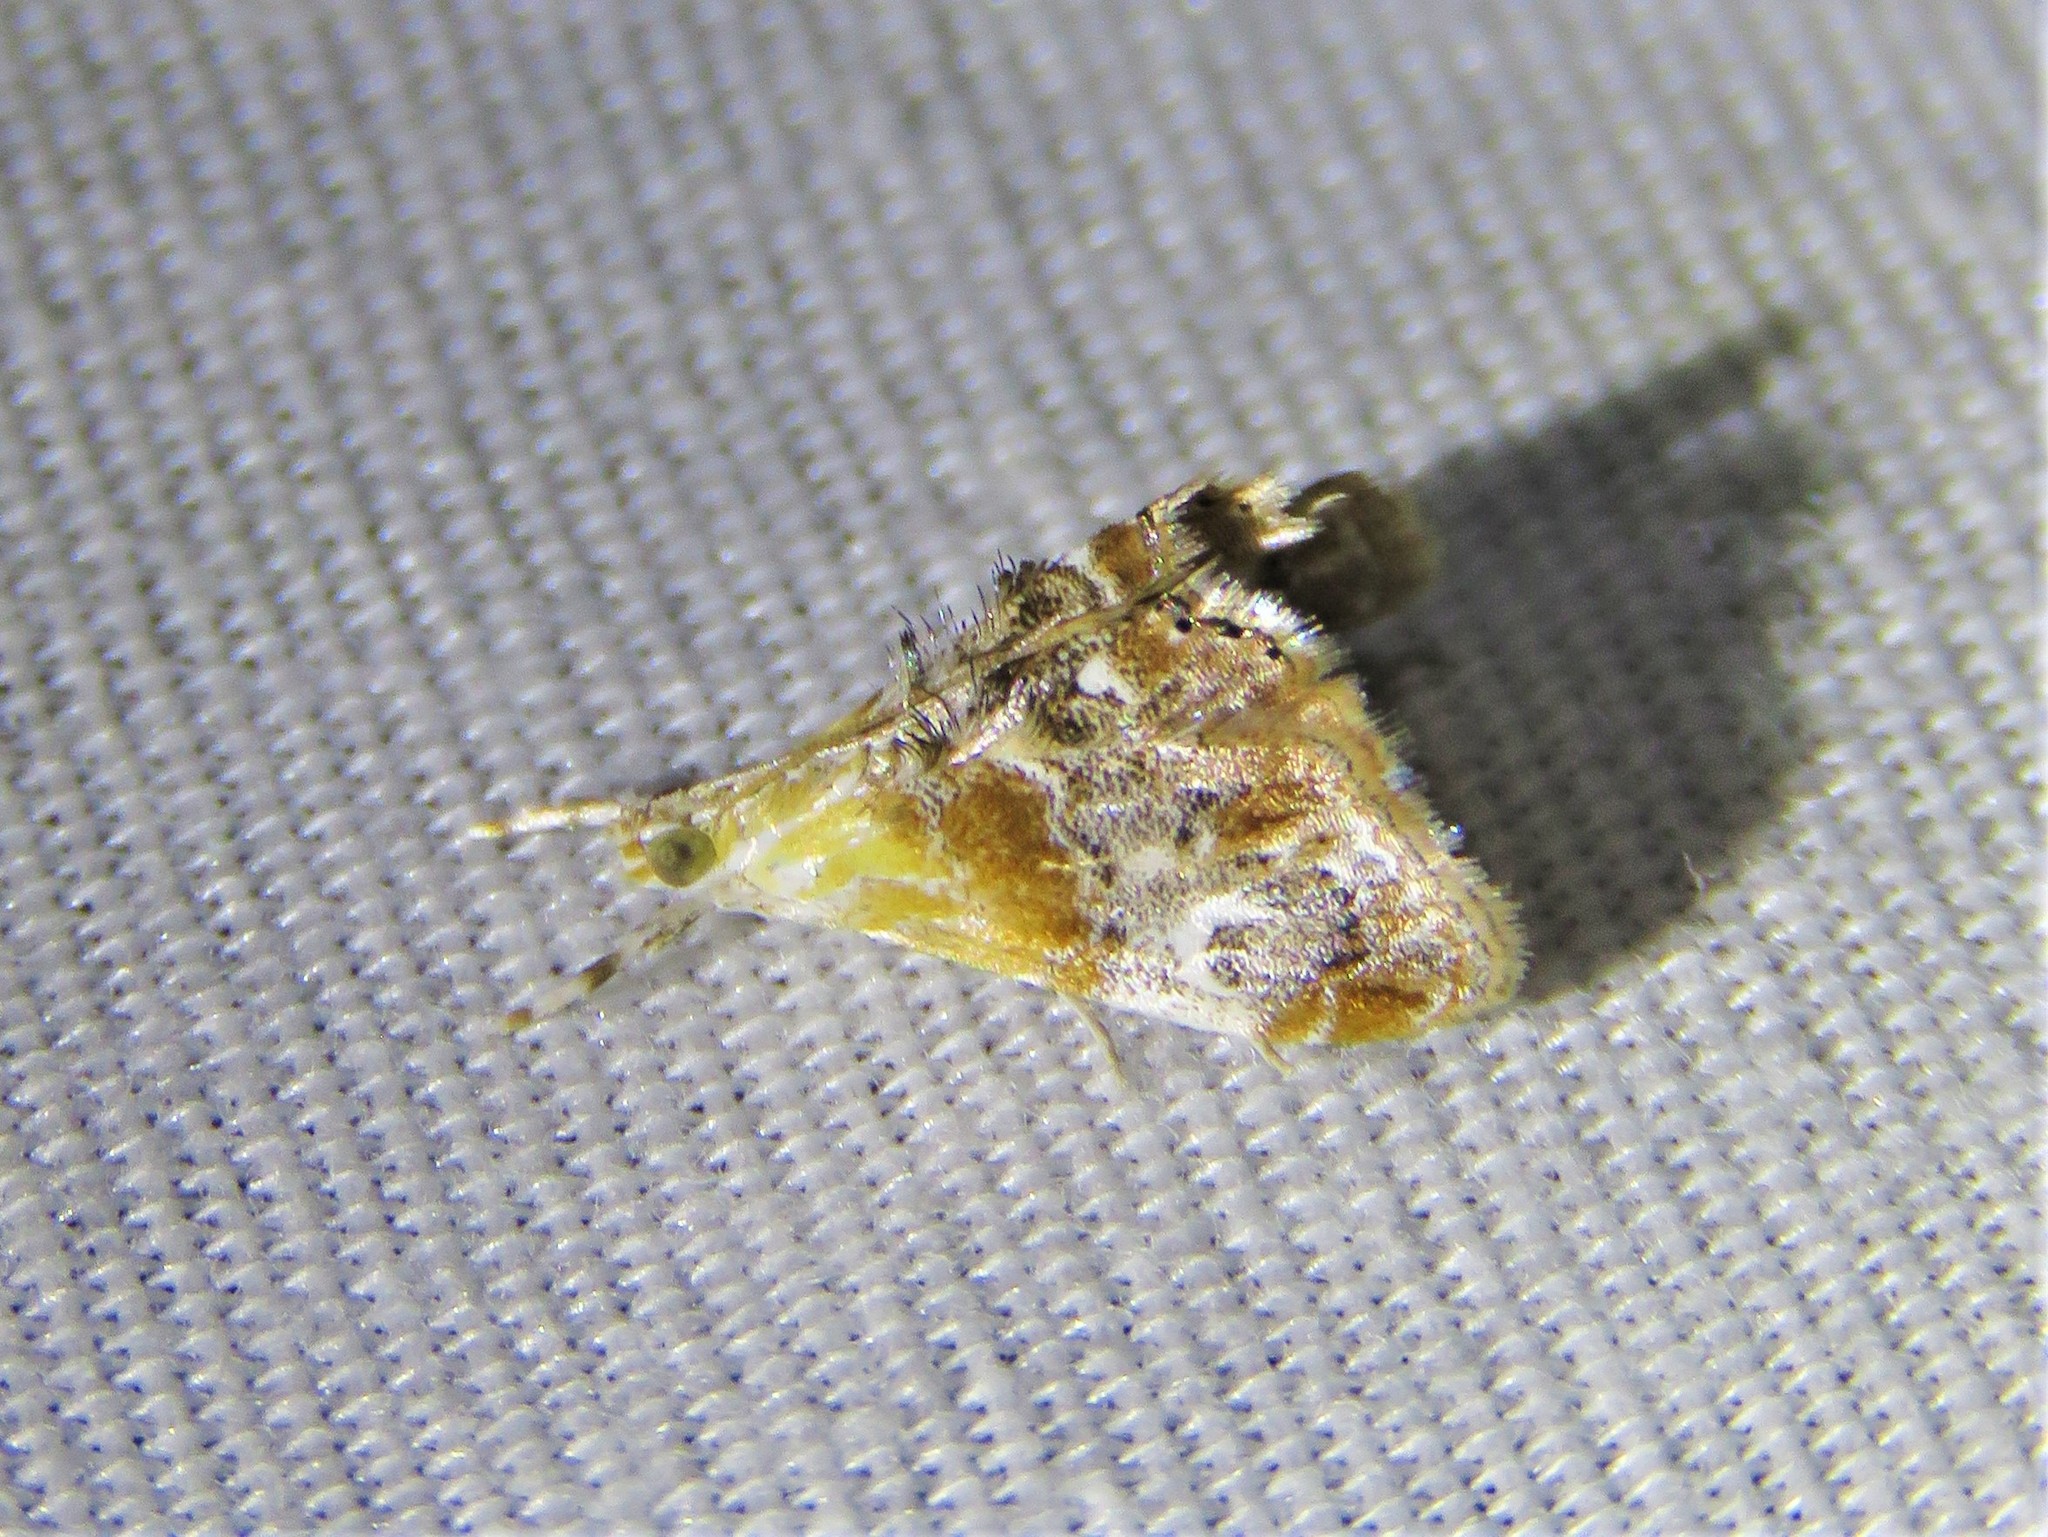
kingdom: Animalia
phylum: Arthropoda
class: Insecta
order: Lepidoptera
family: Crambidae
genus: Dicymolomia
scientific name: Dicymolomia julianalis
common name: Julia's dicymolomia moth
